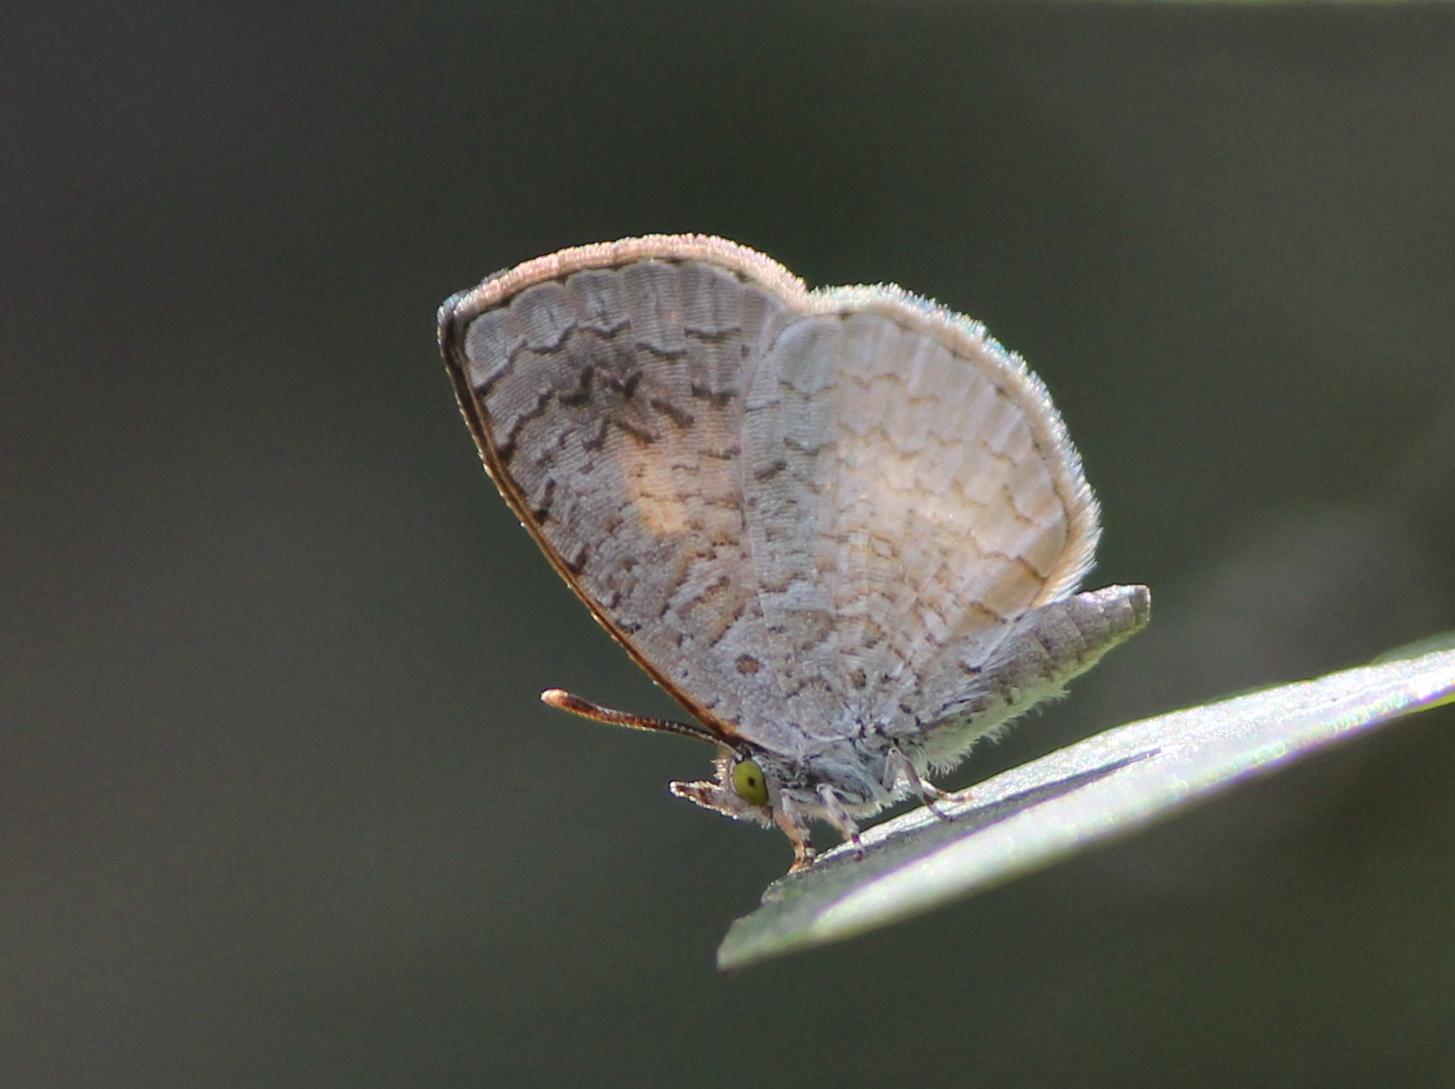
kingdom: Animalia
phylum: Arthropoda
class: Insecta
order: Lepidoptera
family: Lycaenidae
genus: Spalgis
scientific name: Spalgis epius
